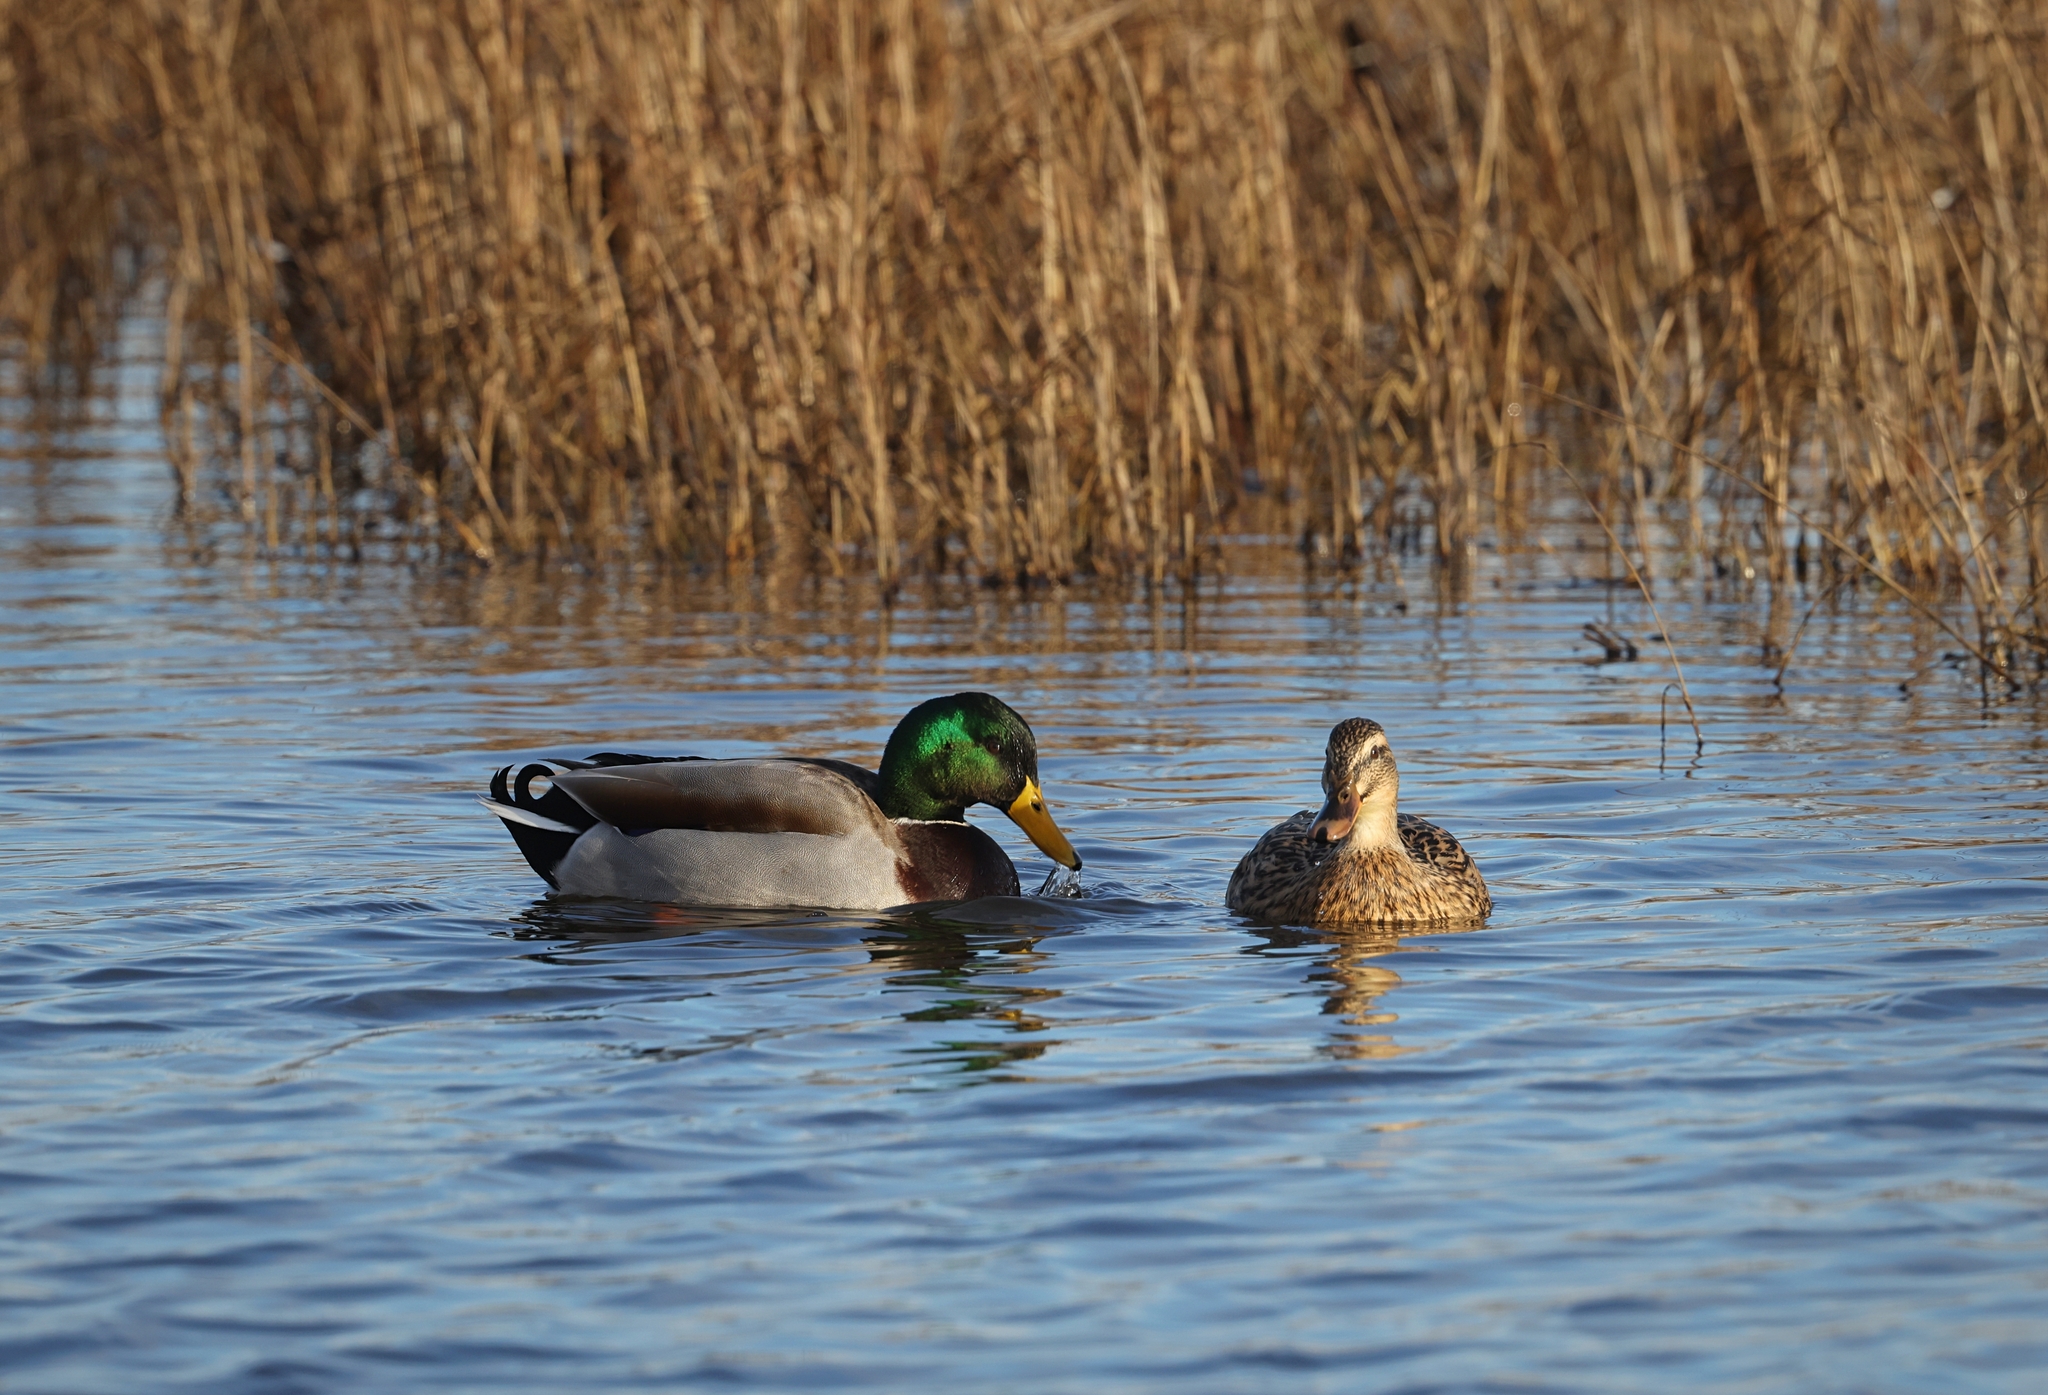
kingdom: Animalia
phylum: Chordata
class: Aves
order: Anseriformes
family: Anatidae
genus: Anas
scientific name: Anas platyrhynchos
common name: Mallard
